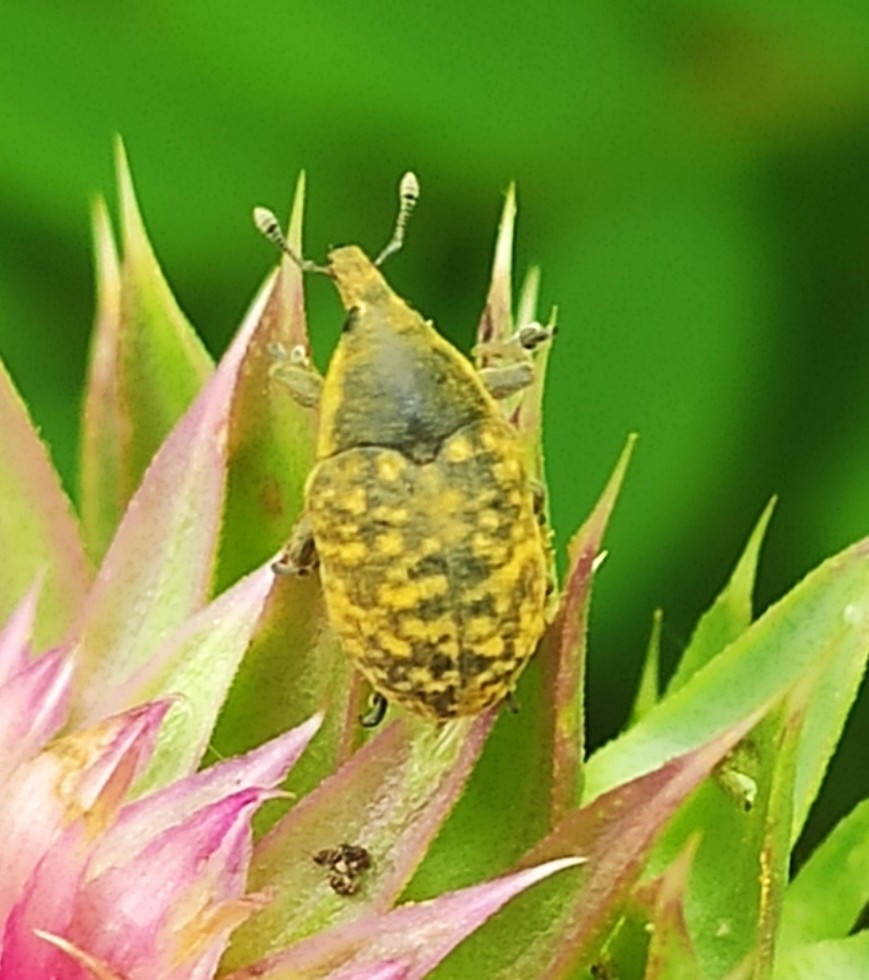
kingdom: Animalia
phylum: Arthropoda
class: Insecta
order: Coleoptera
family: Curculionidae
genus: Larinus
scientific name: Larinus turbinatus
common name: Weevil
